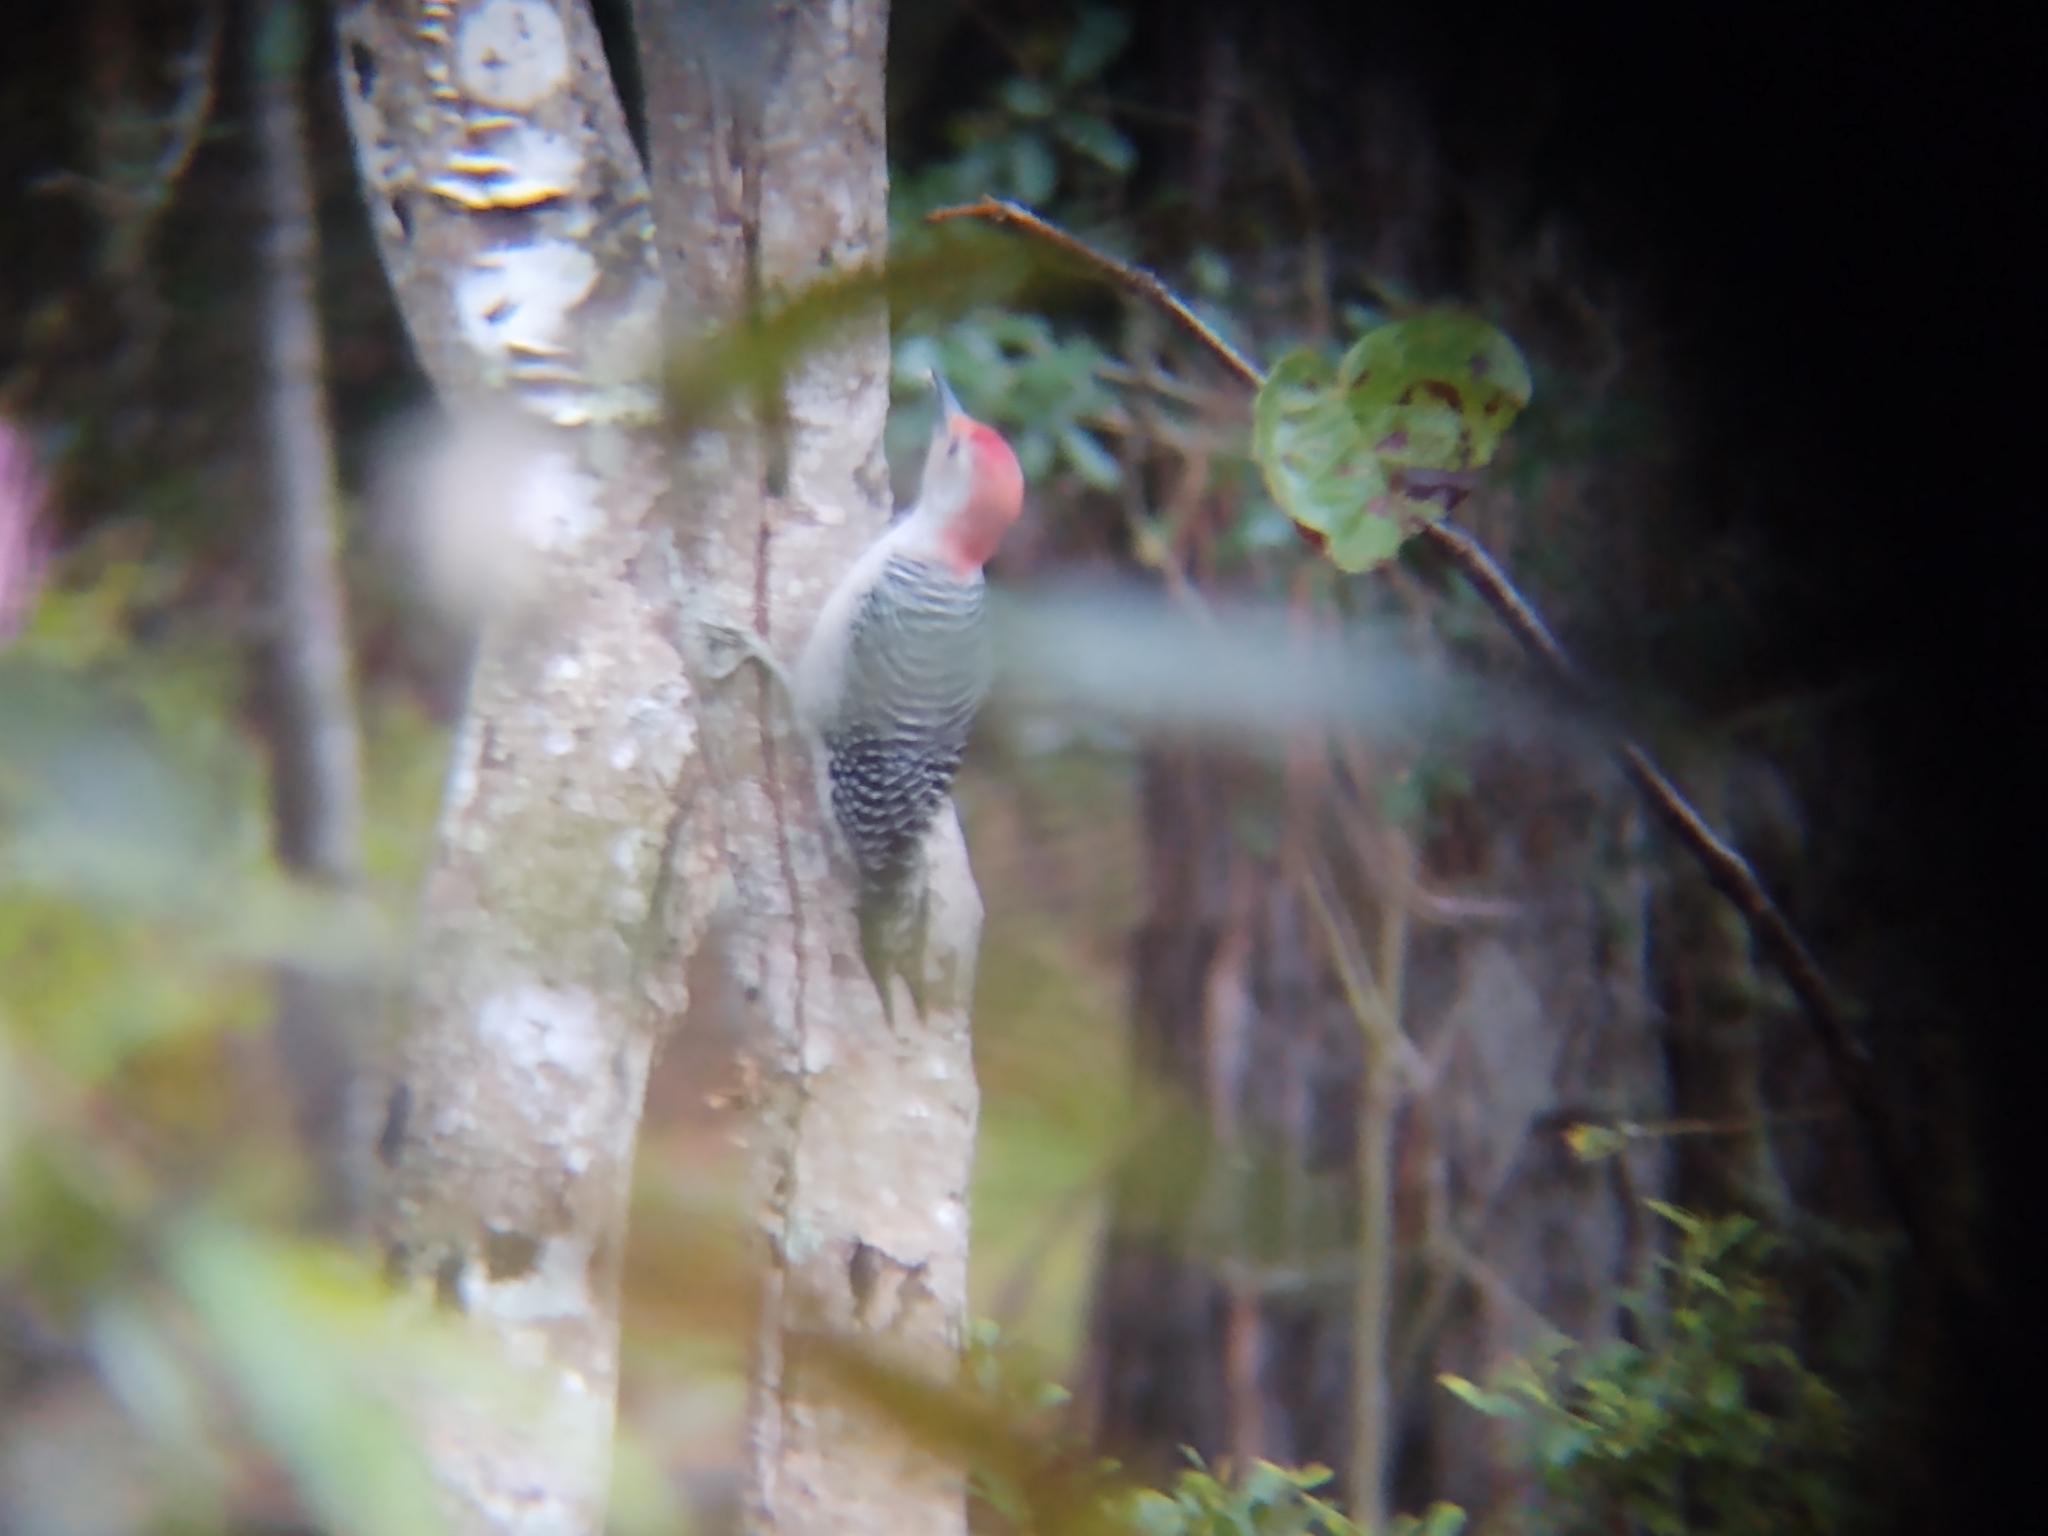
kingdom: Animalia
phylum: Chordata
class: Aves
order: Piciformes
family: Picidae
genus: Melanerpes
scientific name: Melanerpes carolinus
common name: Red-bellied woodpecker
